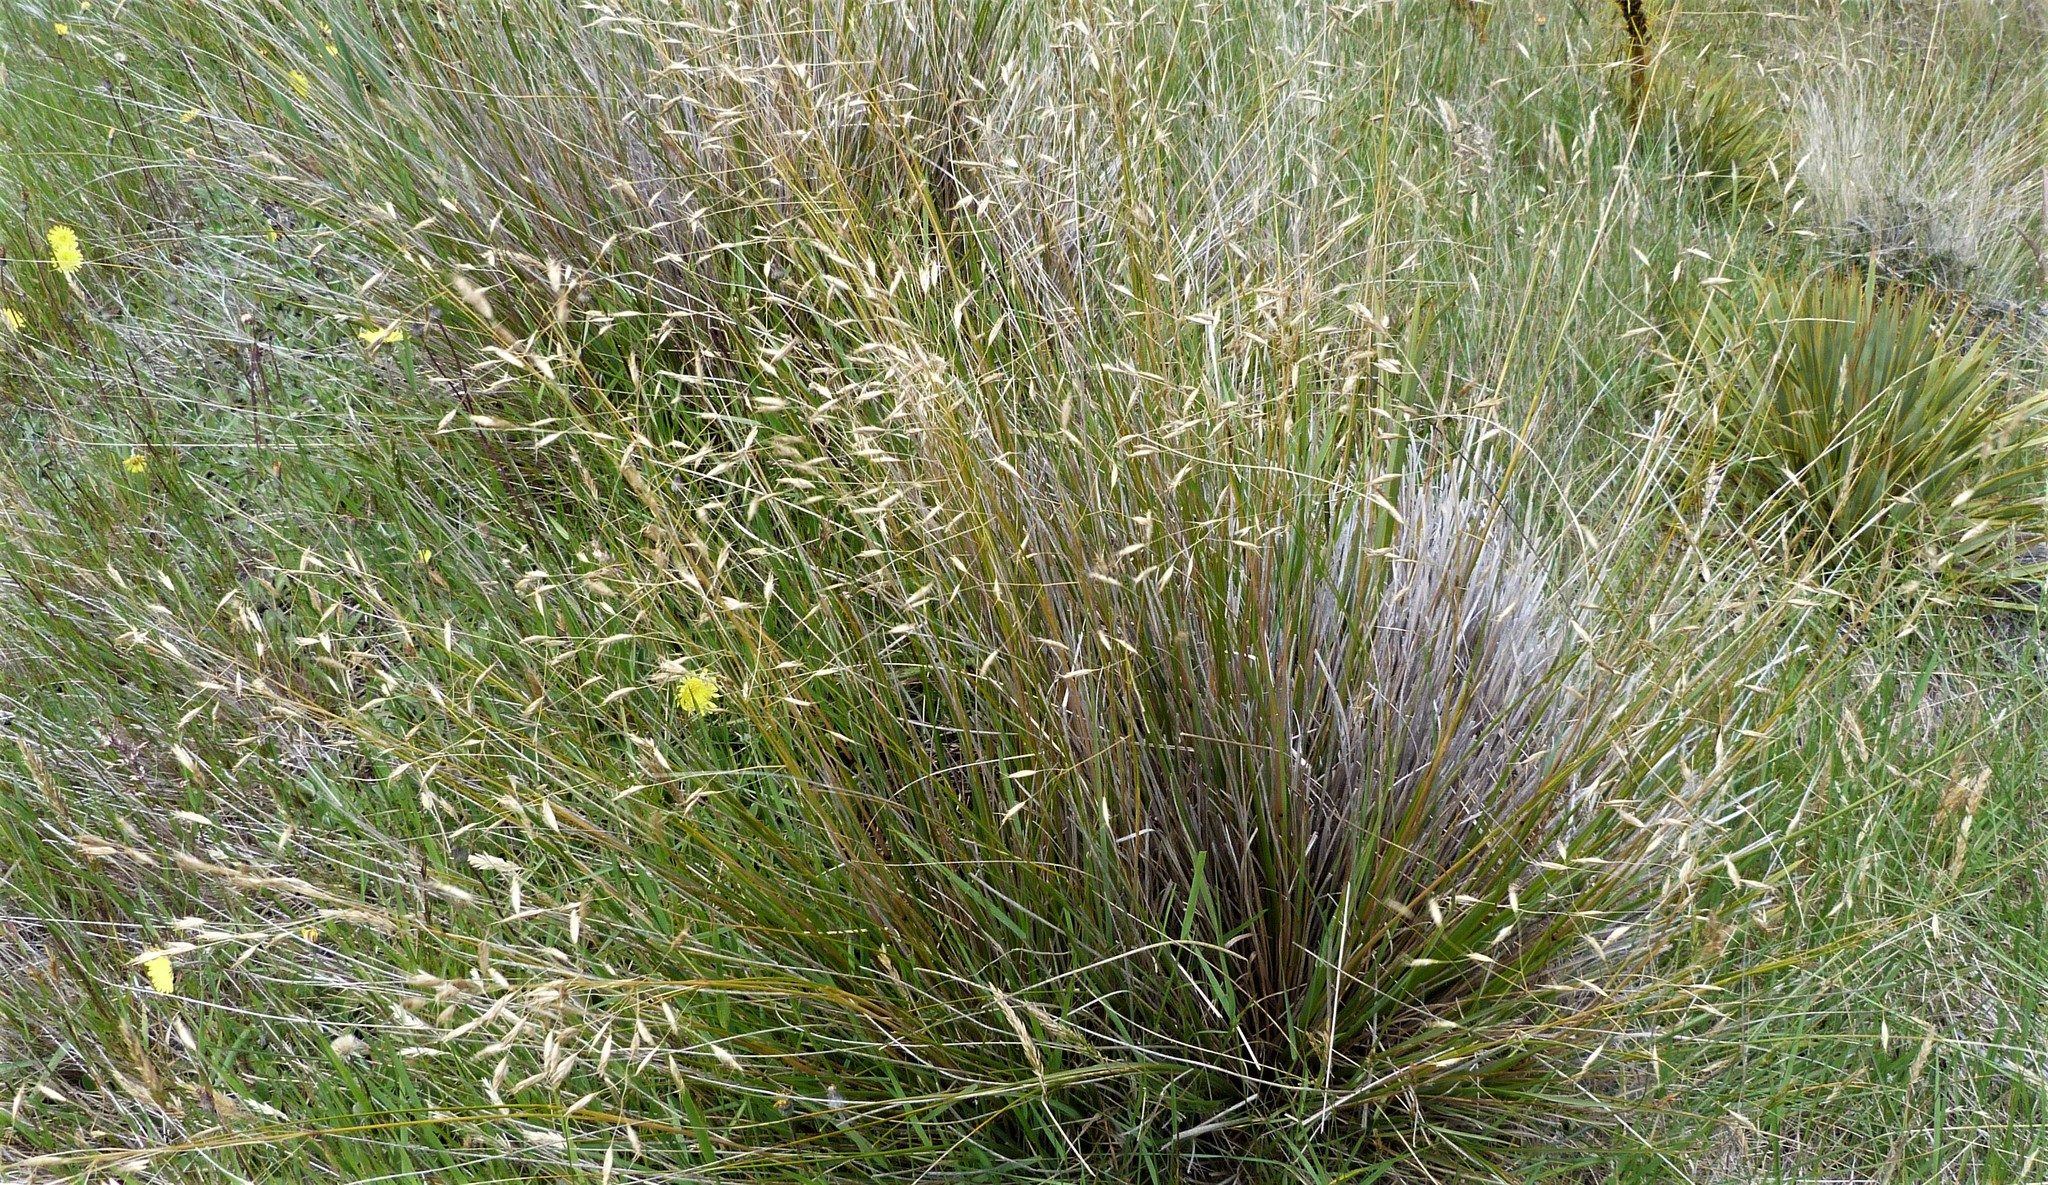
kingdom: Plantae
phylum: Tracheophyta
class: Liliopsida
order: Poales
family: Poaceae
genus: Chionochloa
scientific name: Chionochloa macra
